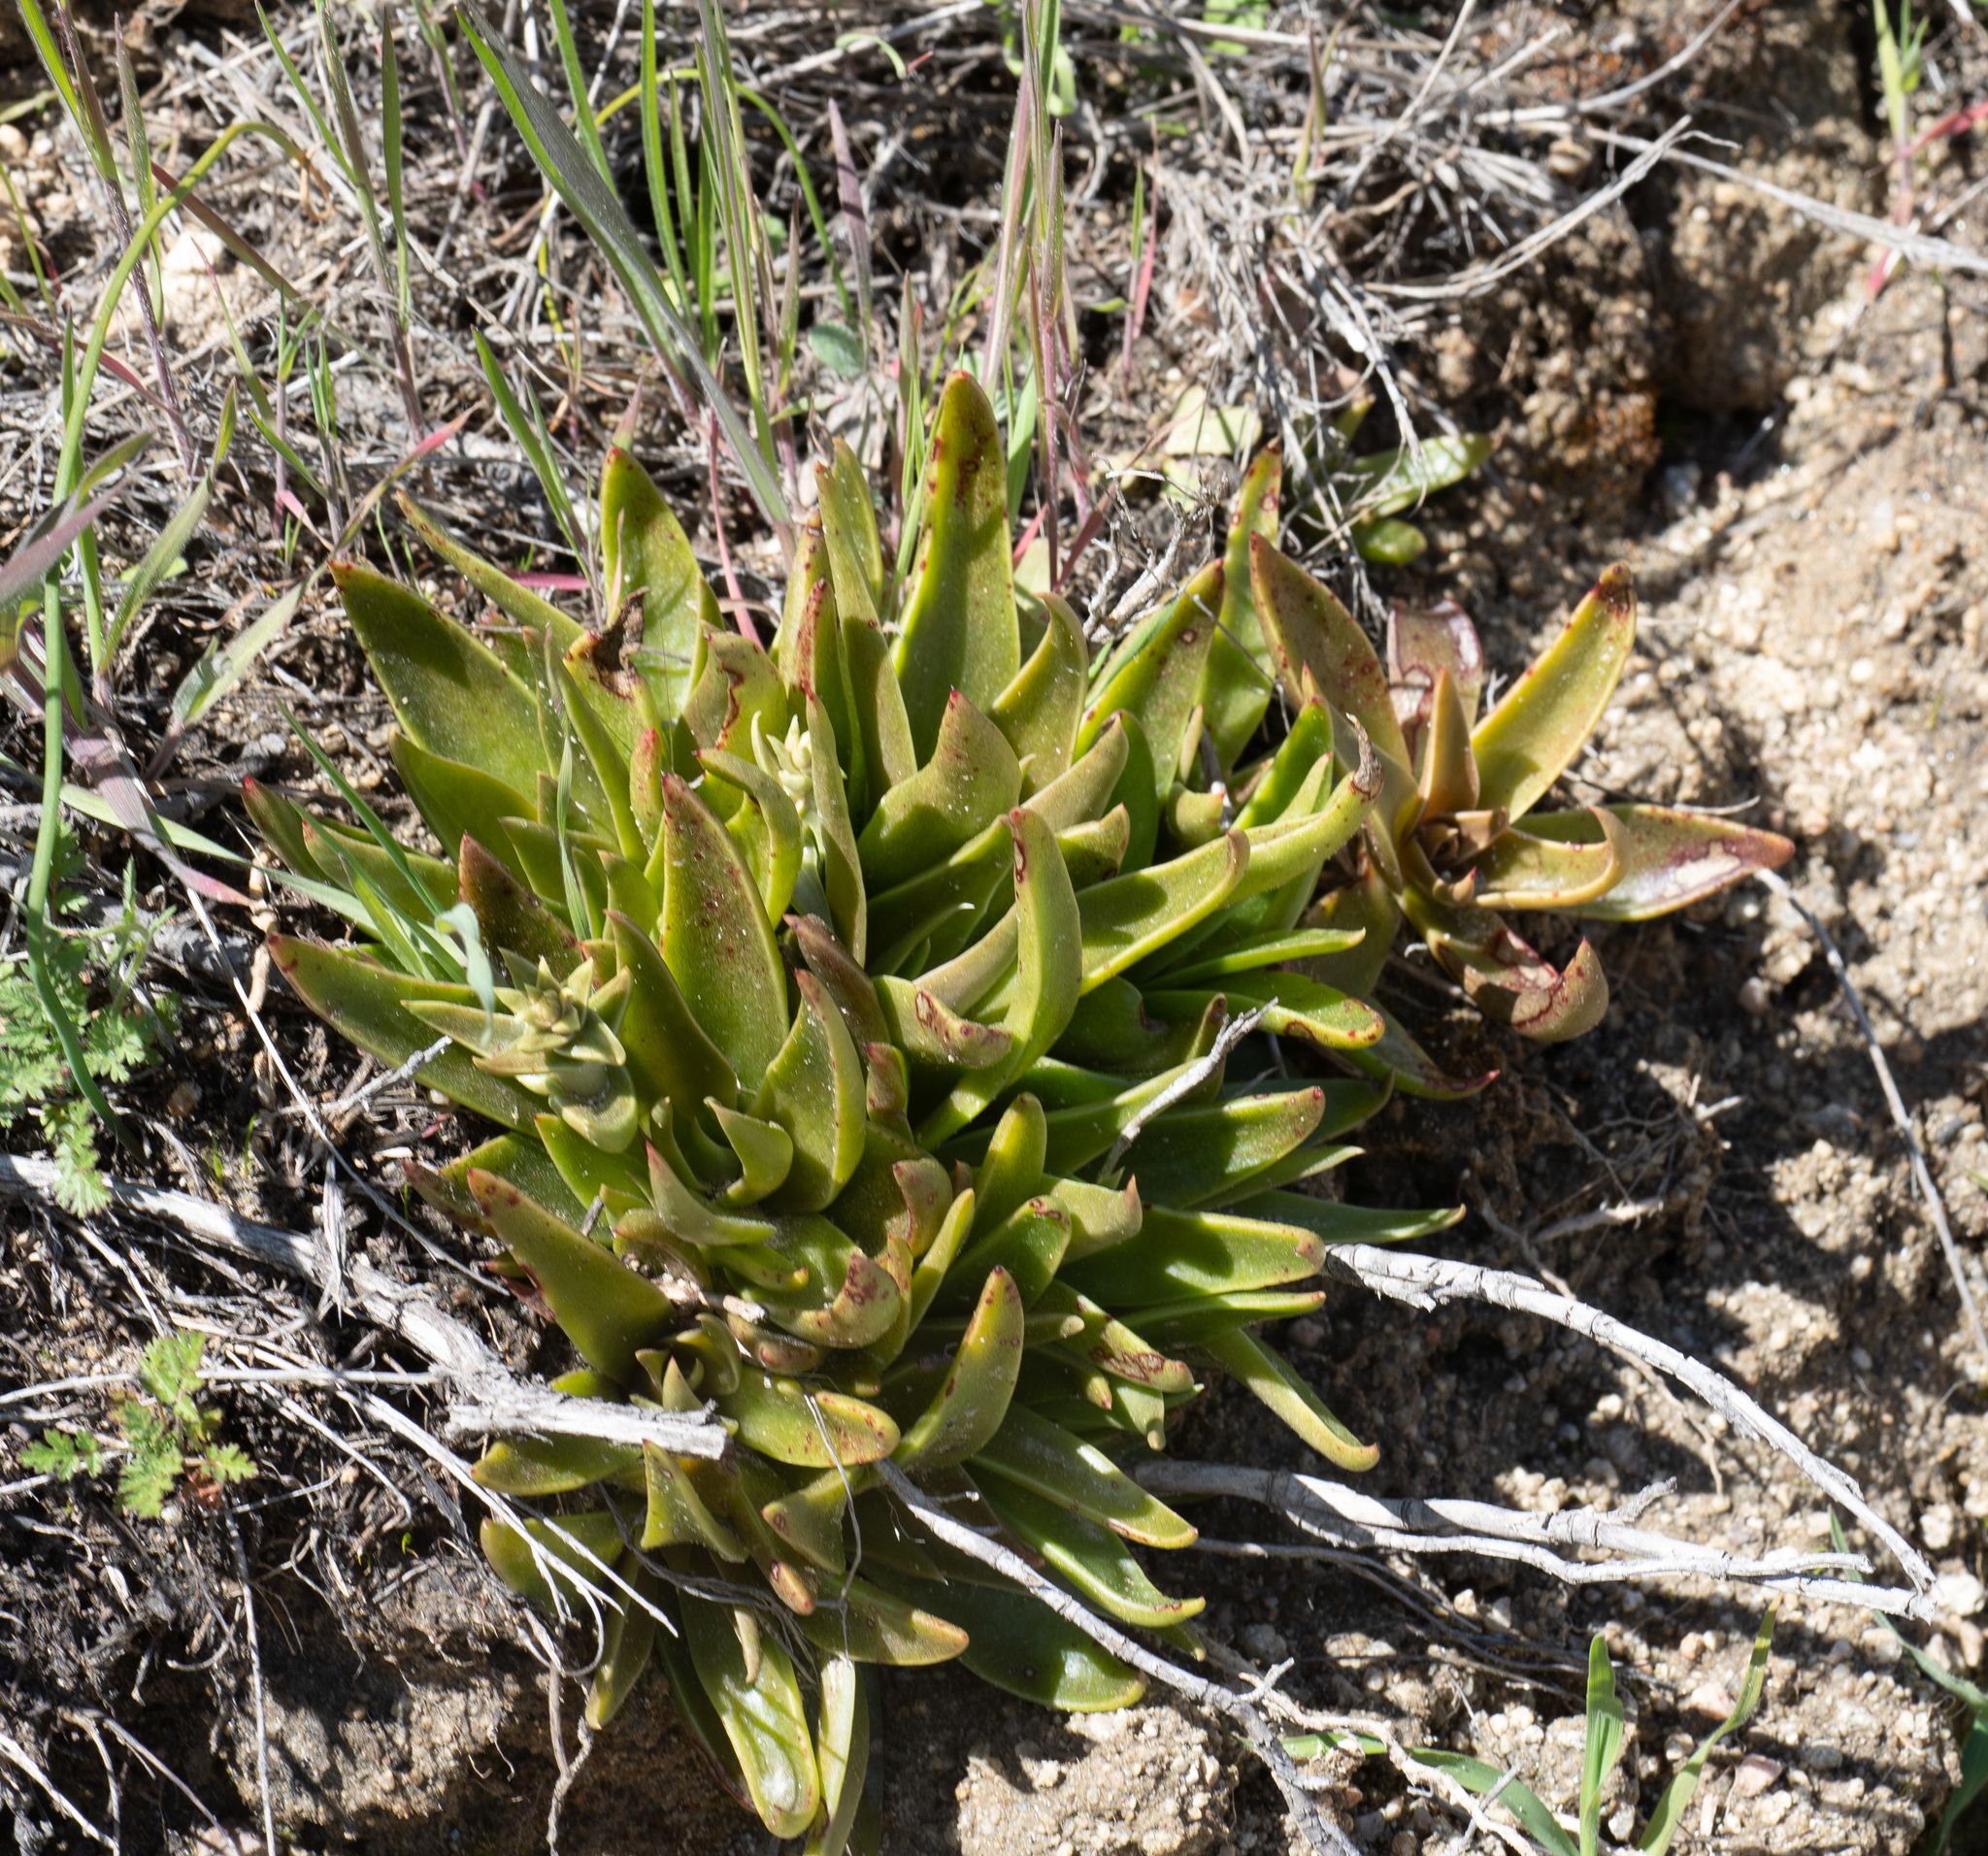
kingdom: Plantae
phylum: Tracheophyta
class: Magnoliopsida
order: Saxifragales
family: Crassulaceae
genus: Dudleya
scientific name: Dudleya lanceolata
